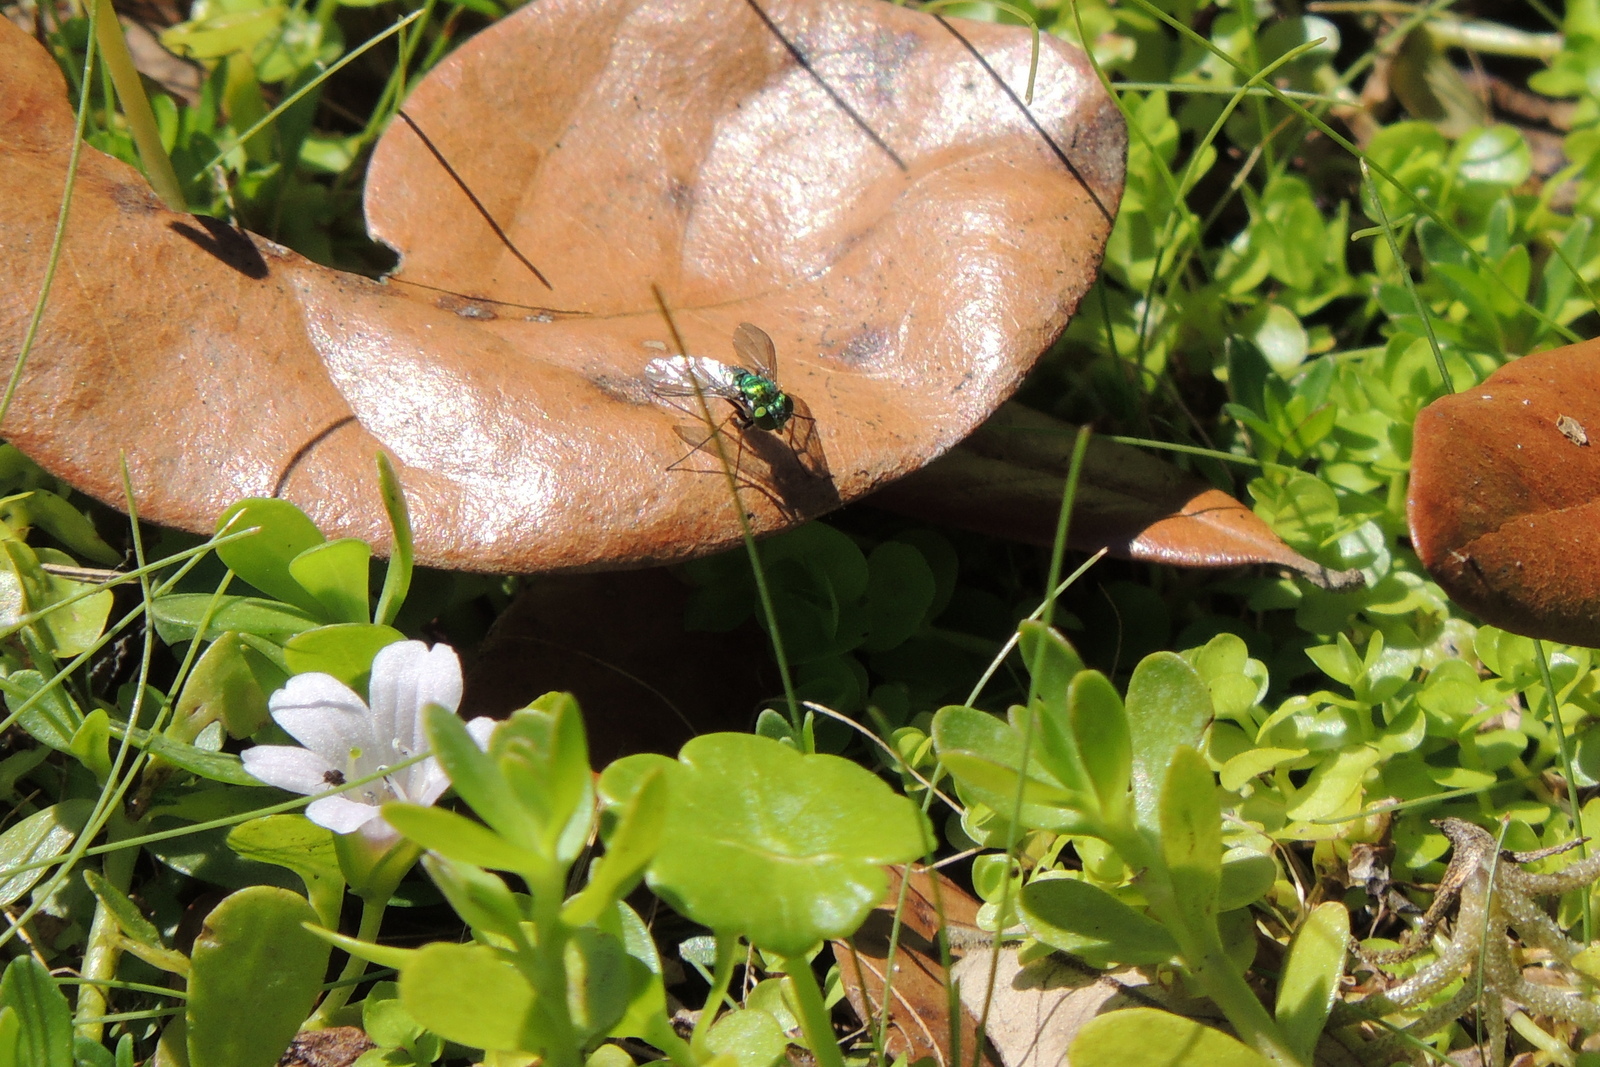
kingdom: Animalia
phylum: Arthropoda
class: Insecta
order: Diptera
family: Dolichopodidae
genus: Condylostylus
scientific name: Condylostylus longicornis
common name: Long-legged fly
